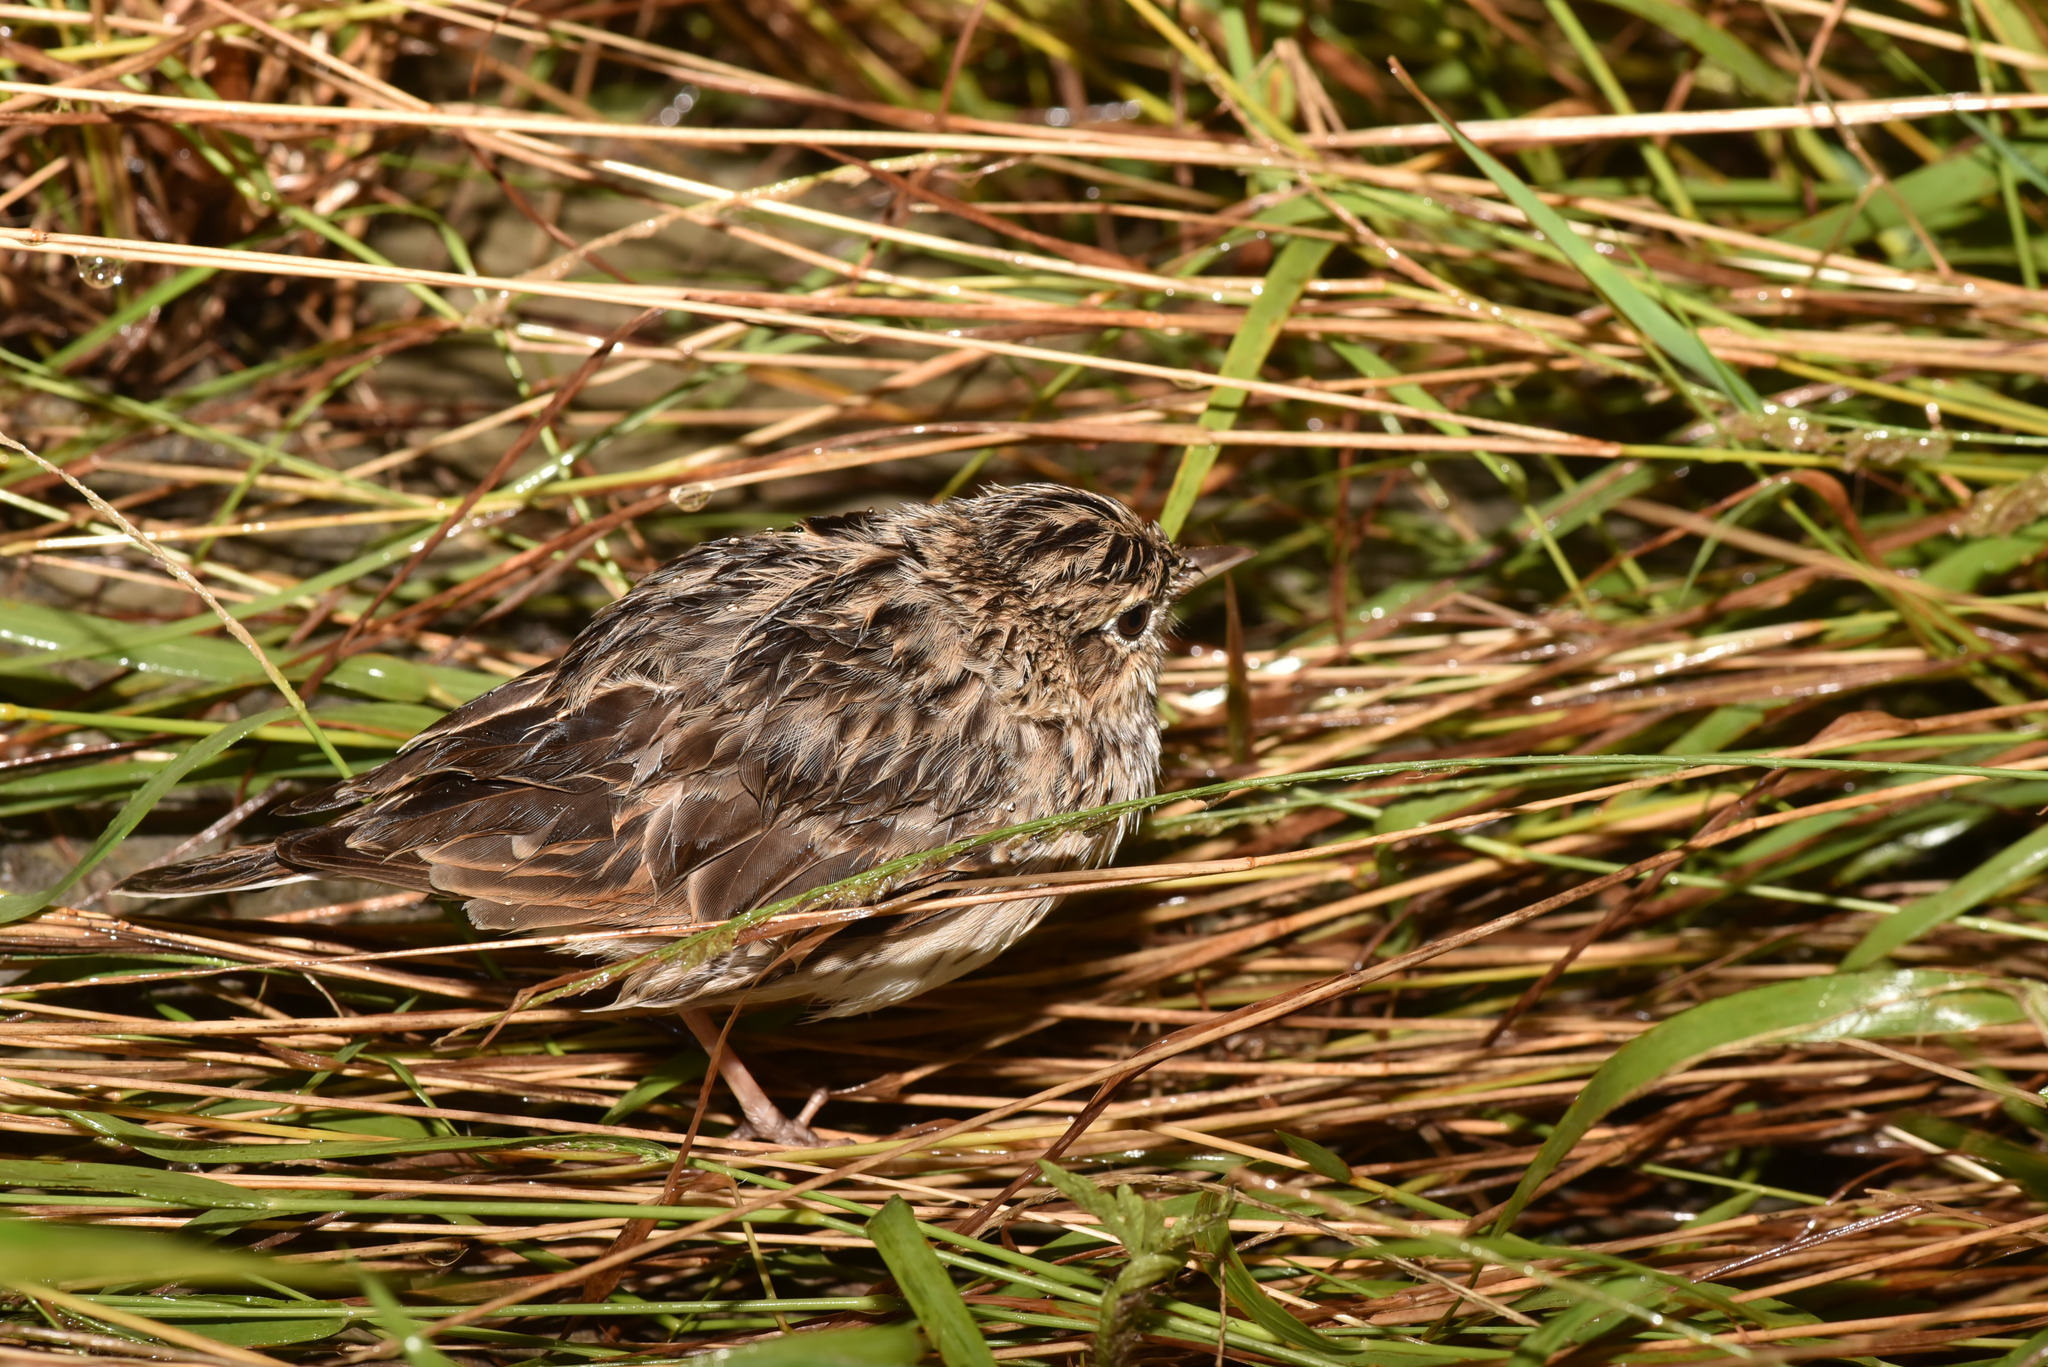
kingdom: Animalia
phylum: Chordata
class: Aves
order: Passeriformes
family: Alaudidae
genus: Alauda
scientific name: Alauda gulgula
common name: Oriental skylark
